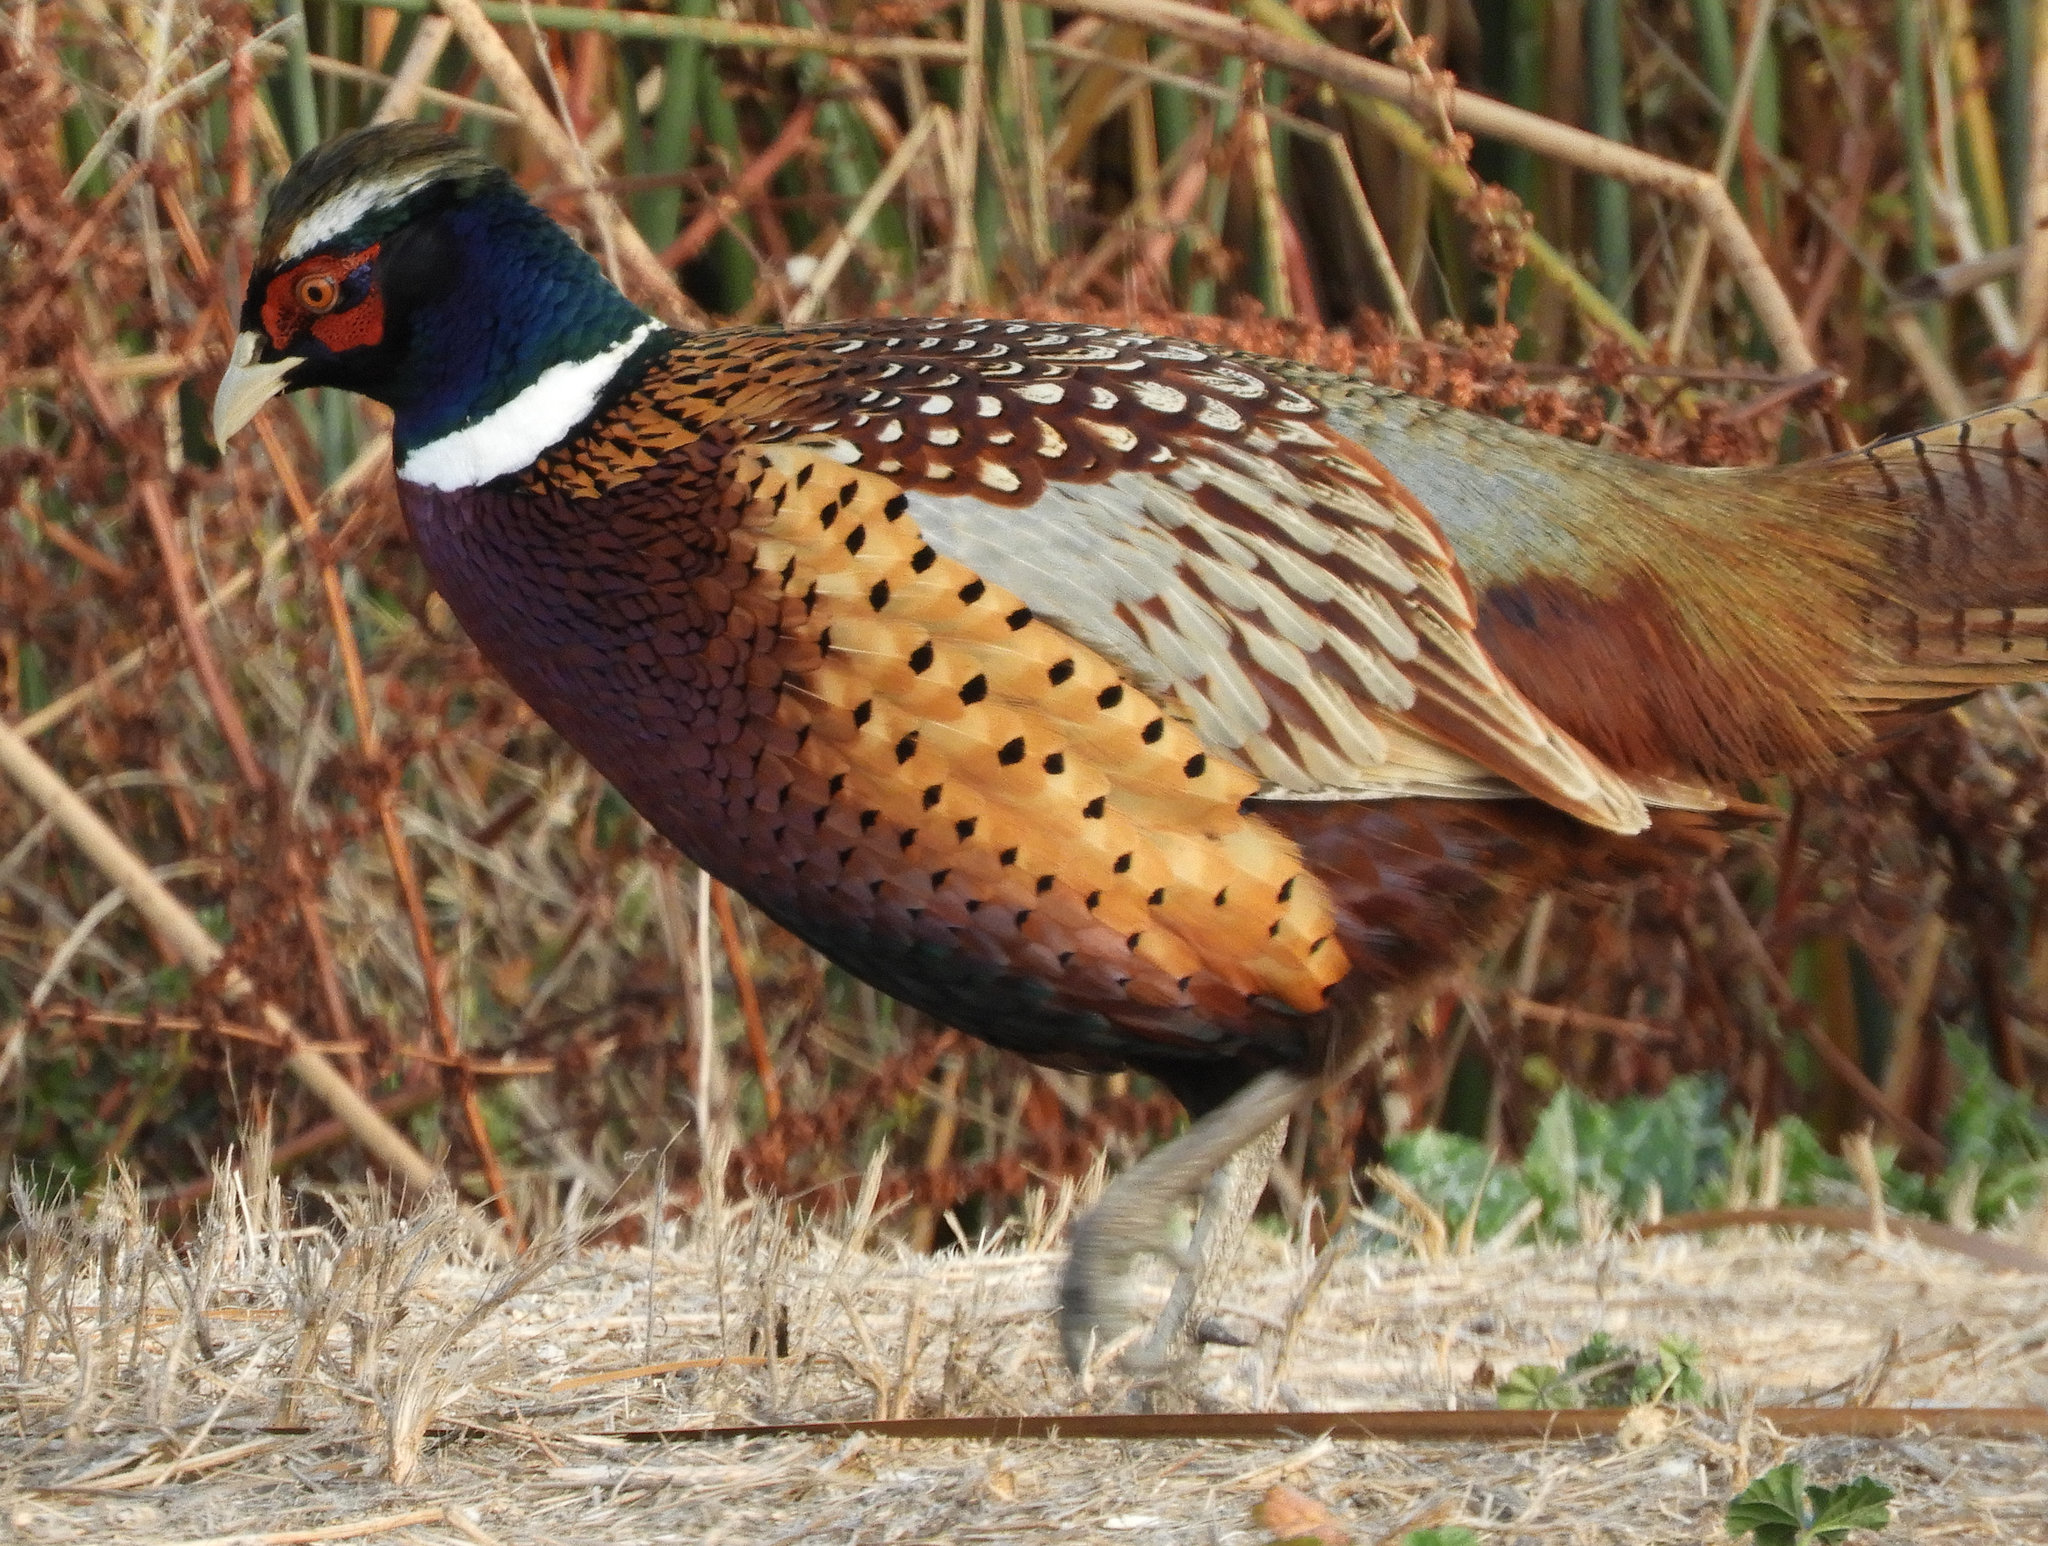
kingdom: Animalia
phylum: Chordata
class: Aves
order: Galliformes
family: Phasianidae
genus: Phasianus
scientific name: Phasianus colchicus
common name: Common pheasant
